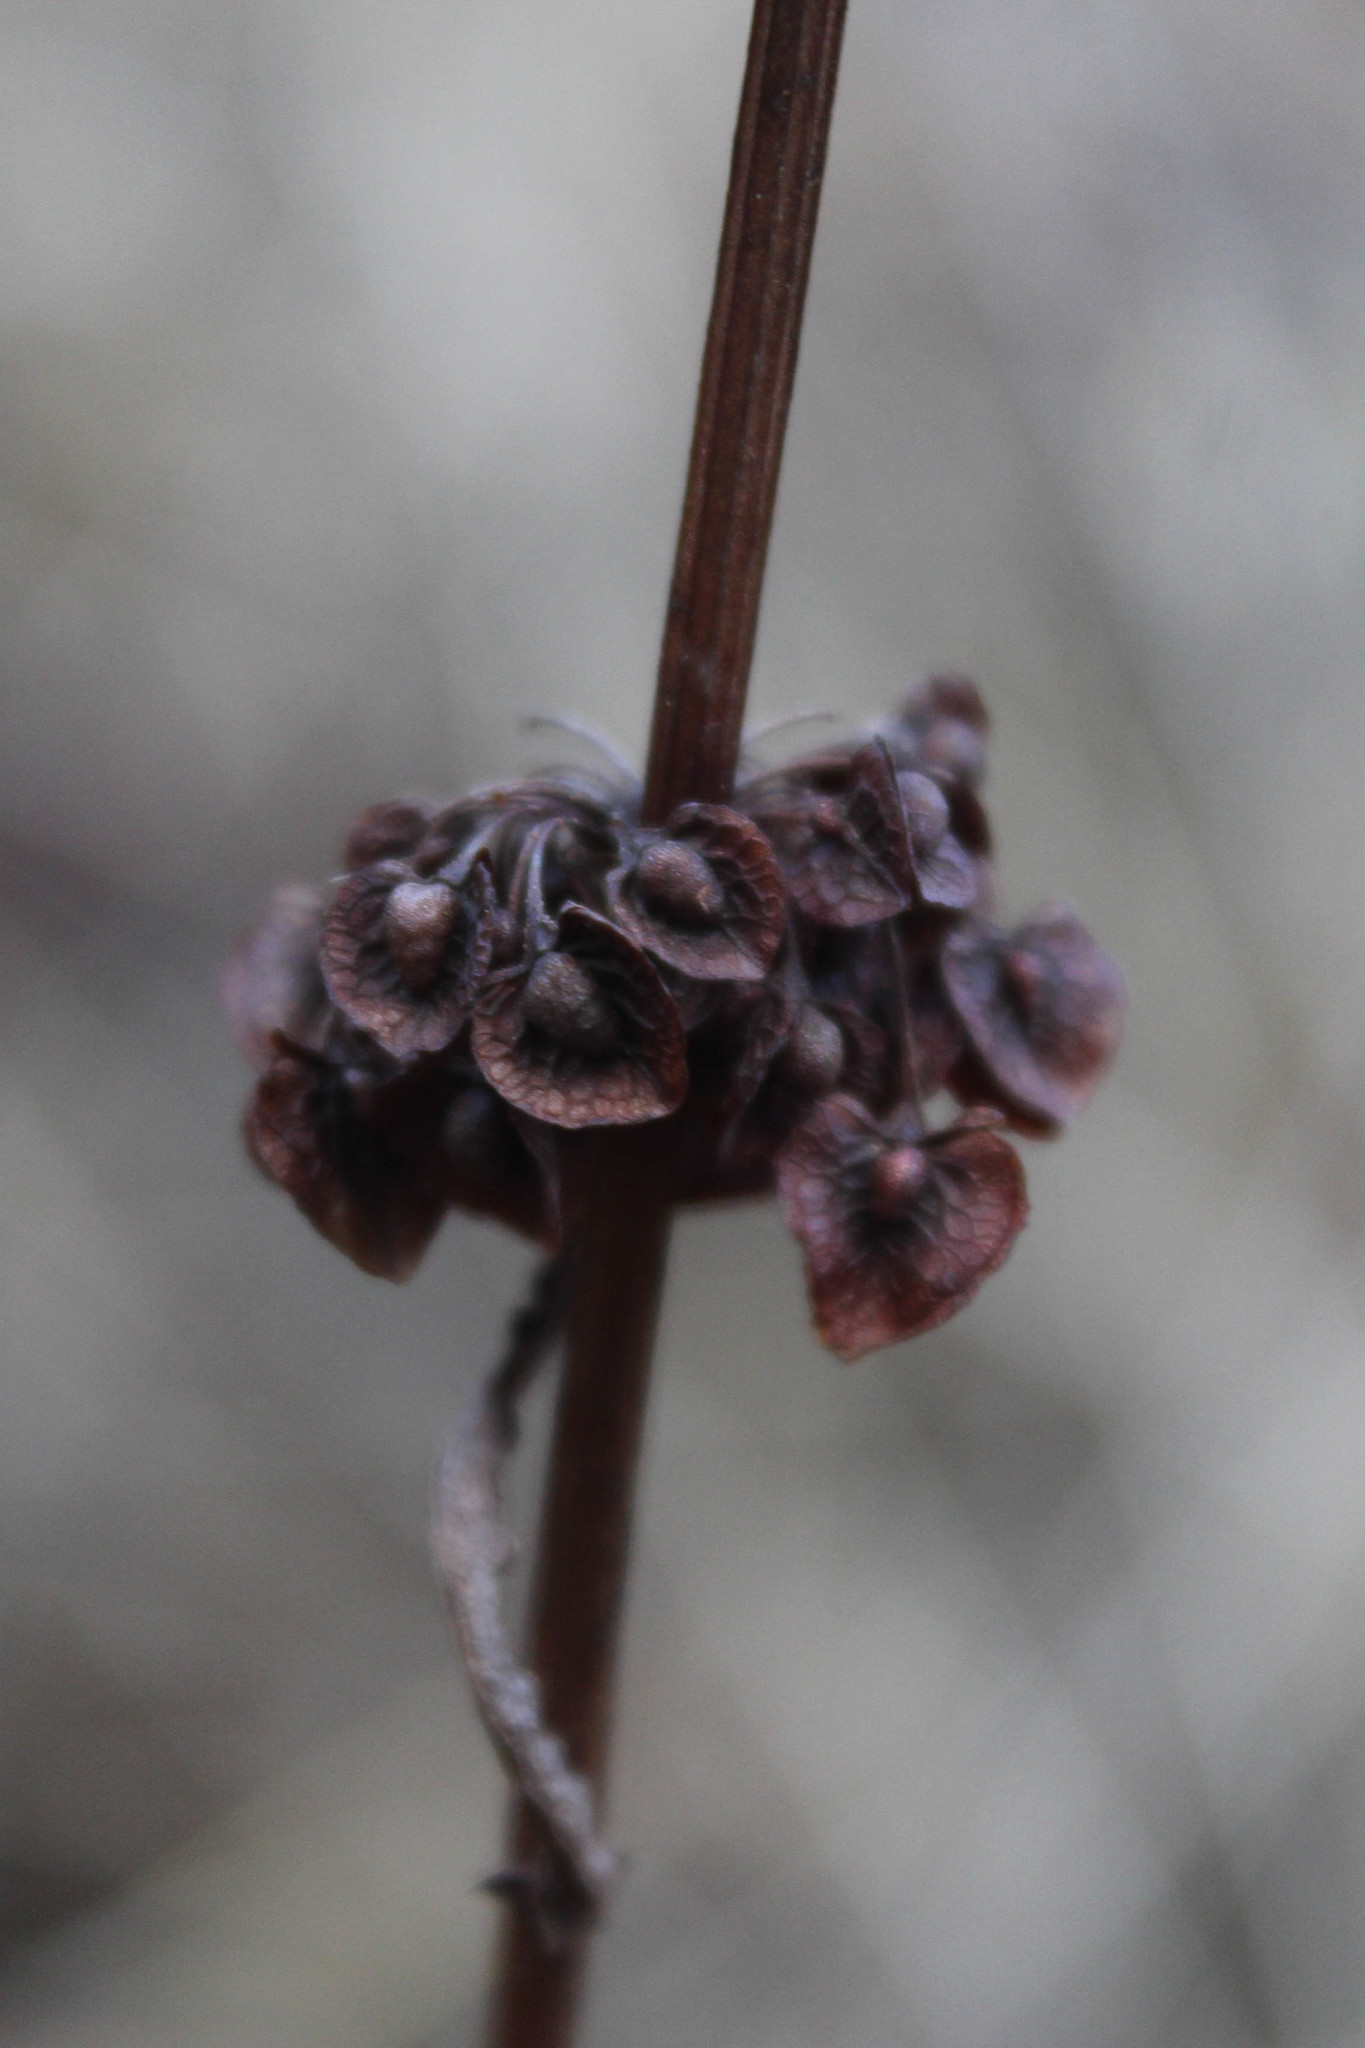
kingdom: Plantae
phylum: Tracheophyta
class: Magnoliopsida
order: Caryophyllales
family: Polygonaceae
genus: Rumex
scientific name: Rumex crispus
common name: Curled dock
